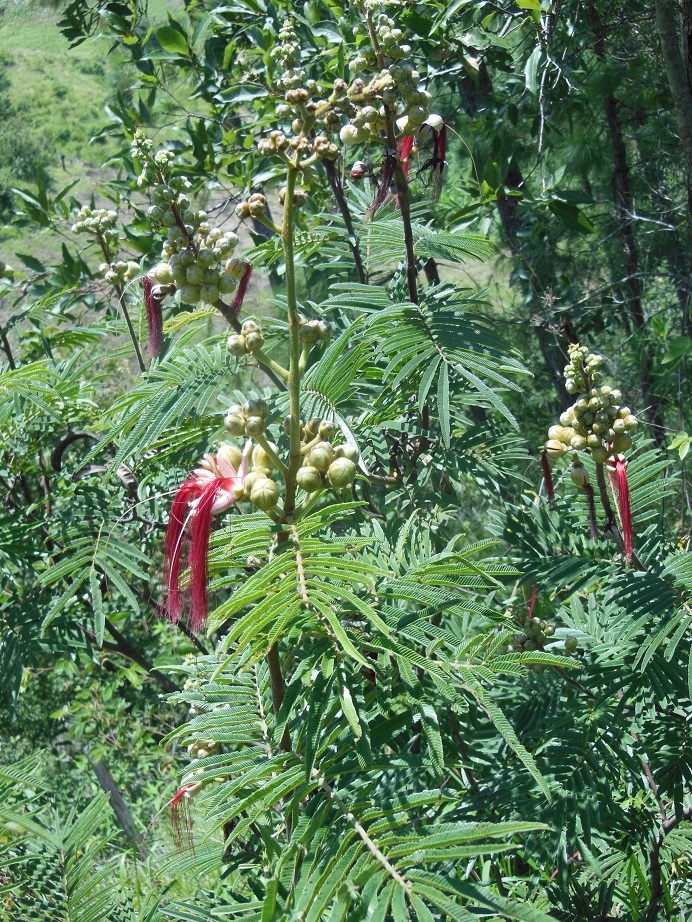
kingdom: Plantae
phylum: Tracheophyta
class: Magnoliopsida
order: Fabales
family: Fabaceae
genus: Calliandra
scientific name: Calliandra houstoniana
